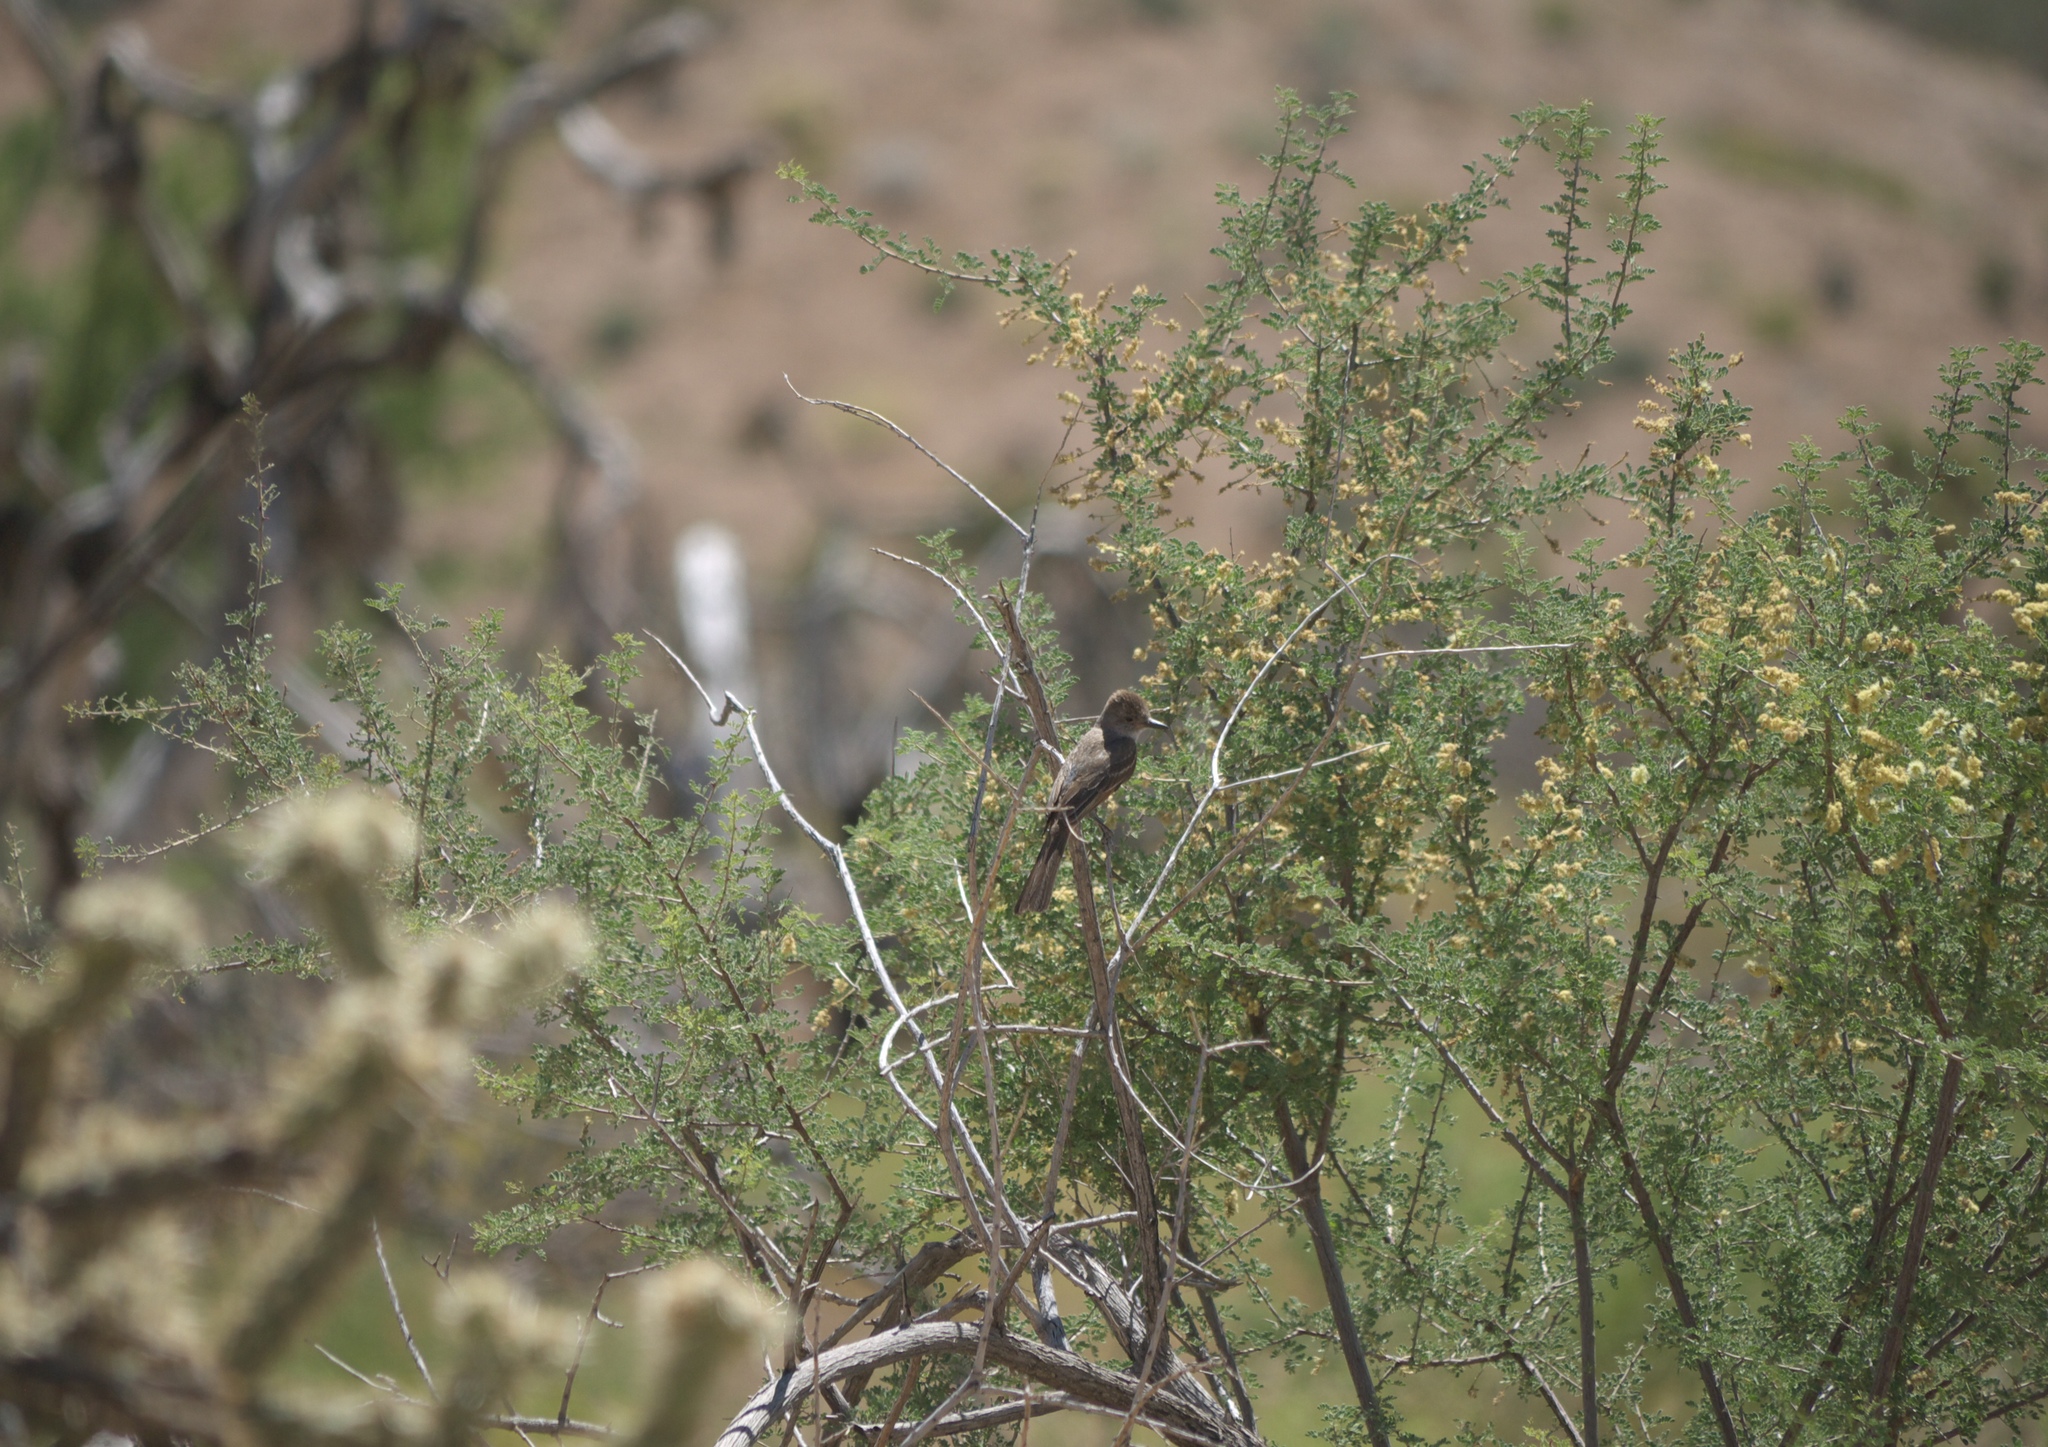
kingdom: Plantae
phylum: Tracheophyta
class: Magnoliopsida
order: Fabales
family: Fabaceae
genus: Senegalia
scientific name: Senegalia greggii
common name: Texas-mimosa
